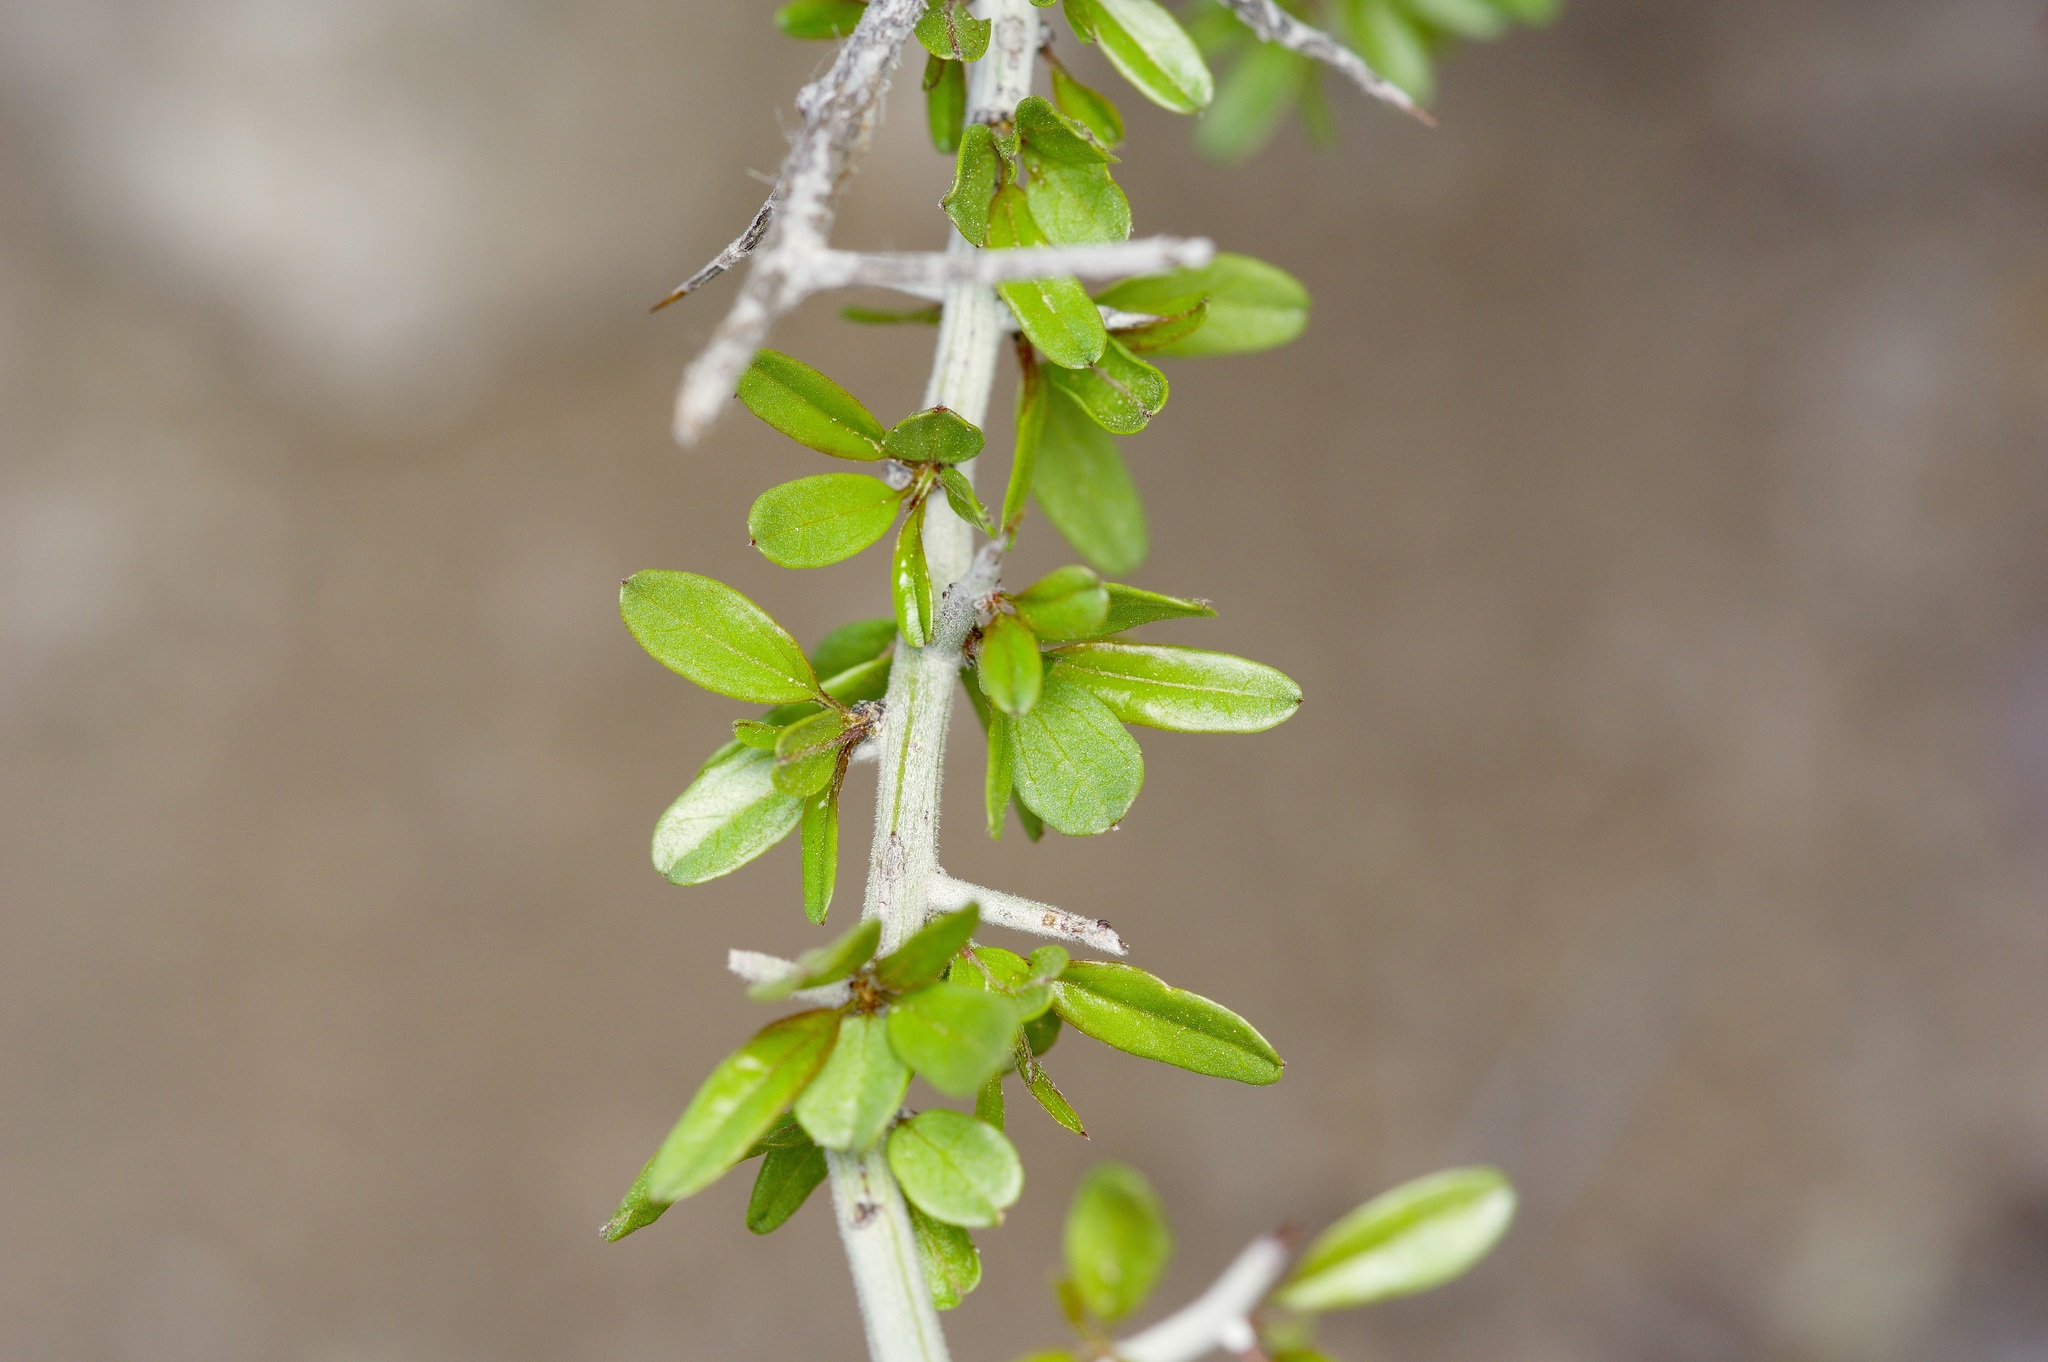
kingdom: Plantae
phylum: Tracheophyta
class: Magnoliopsida
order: Rosales
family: Rhamnaceae
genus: Sarcomphalus
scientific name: Sarcomphalus obtusifolius
